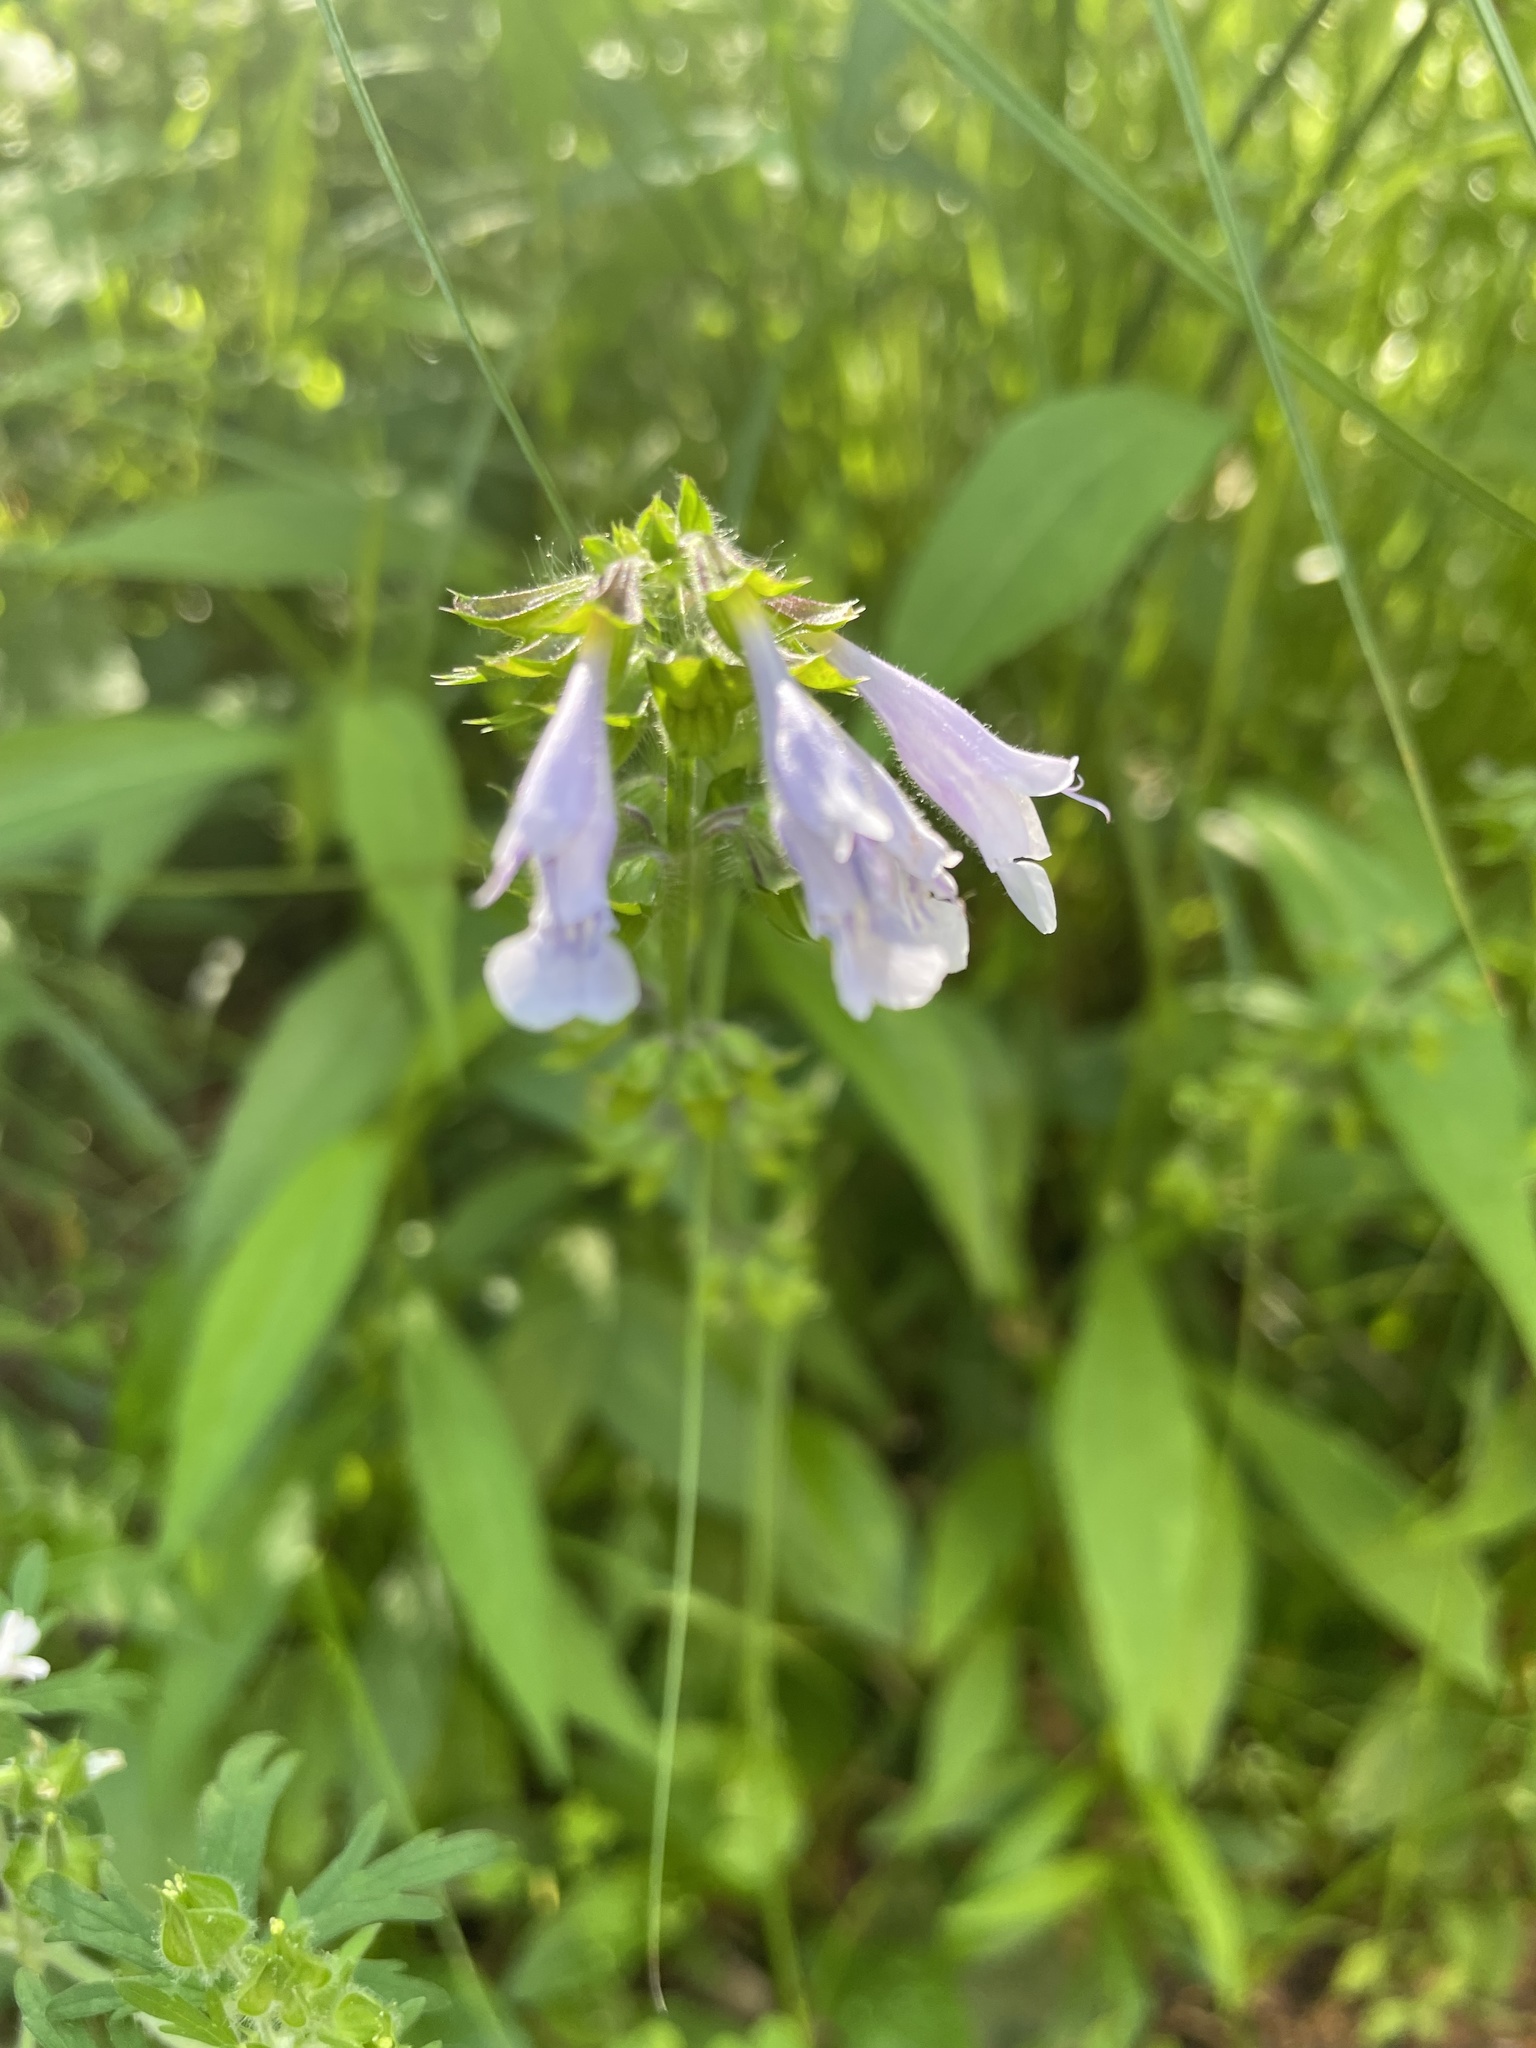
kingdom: Plantae
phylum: Tracheophyta
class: Magnoliopsida
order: Lamiales
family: Lamiaceae
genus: Salvia
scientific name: Salvia lyrata
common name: Cancerweed
